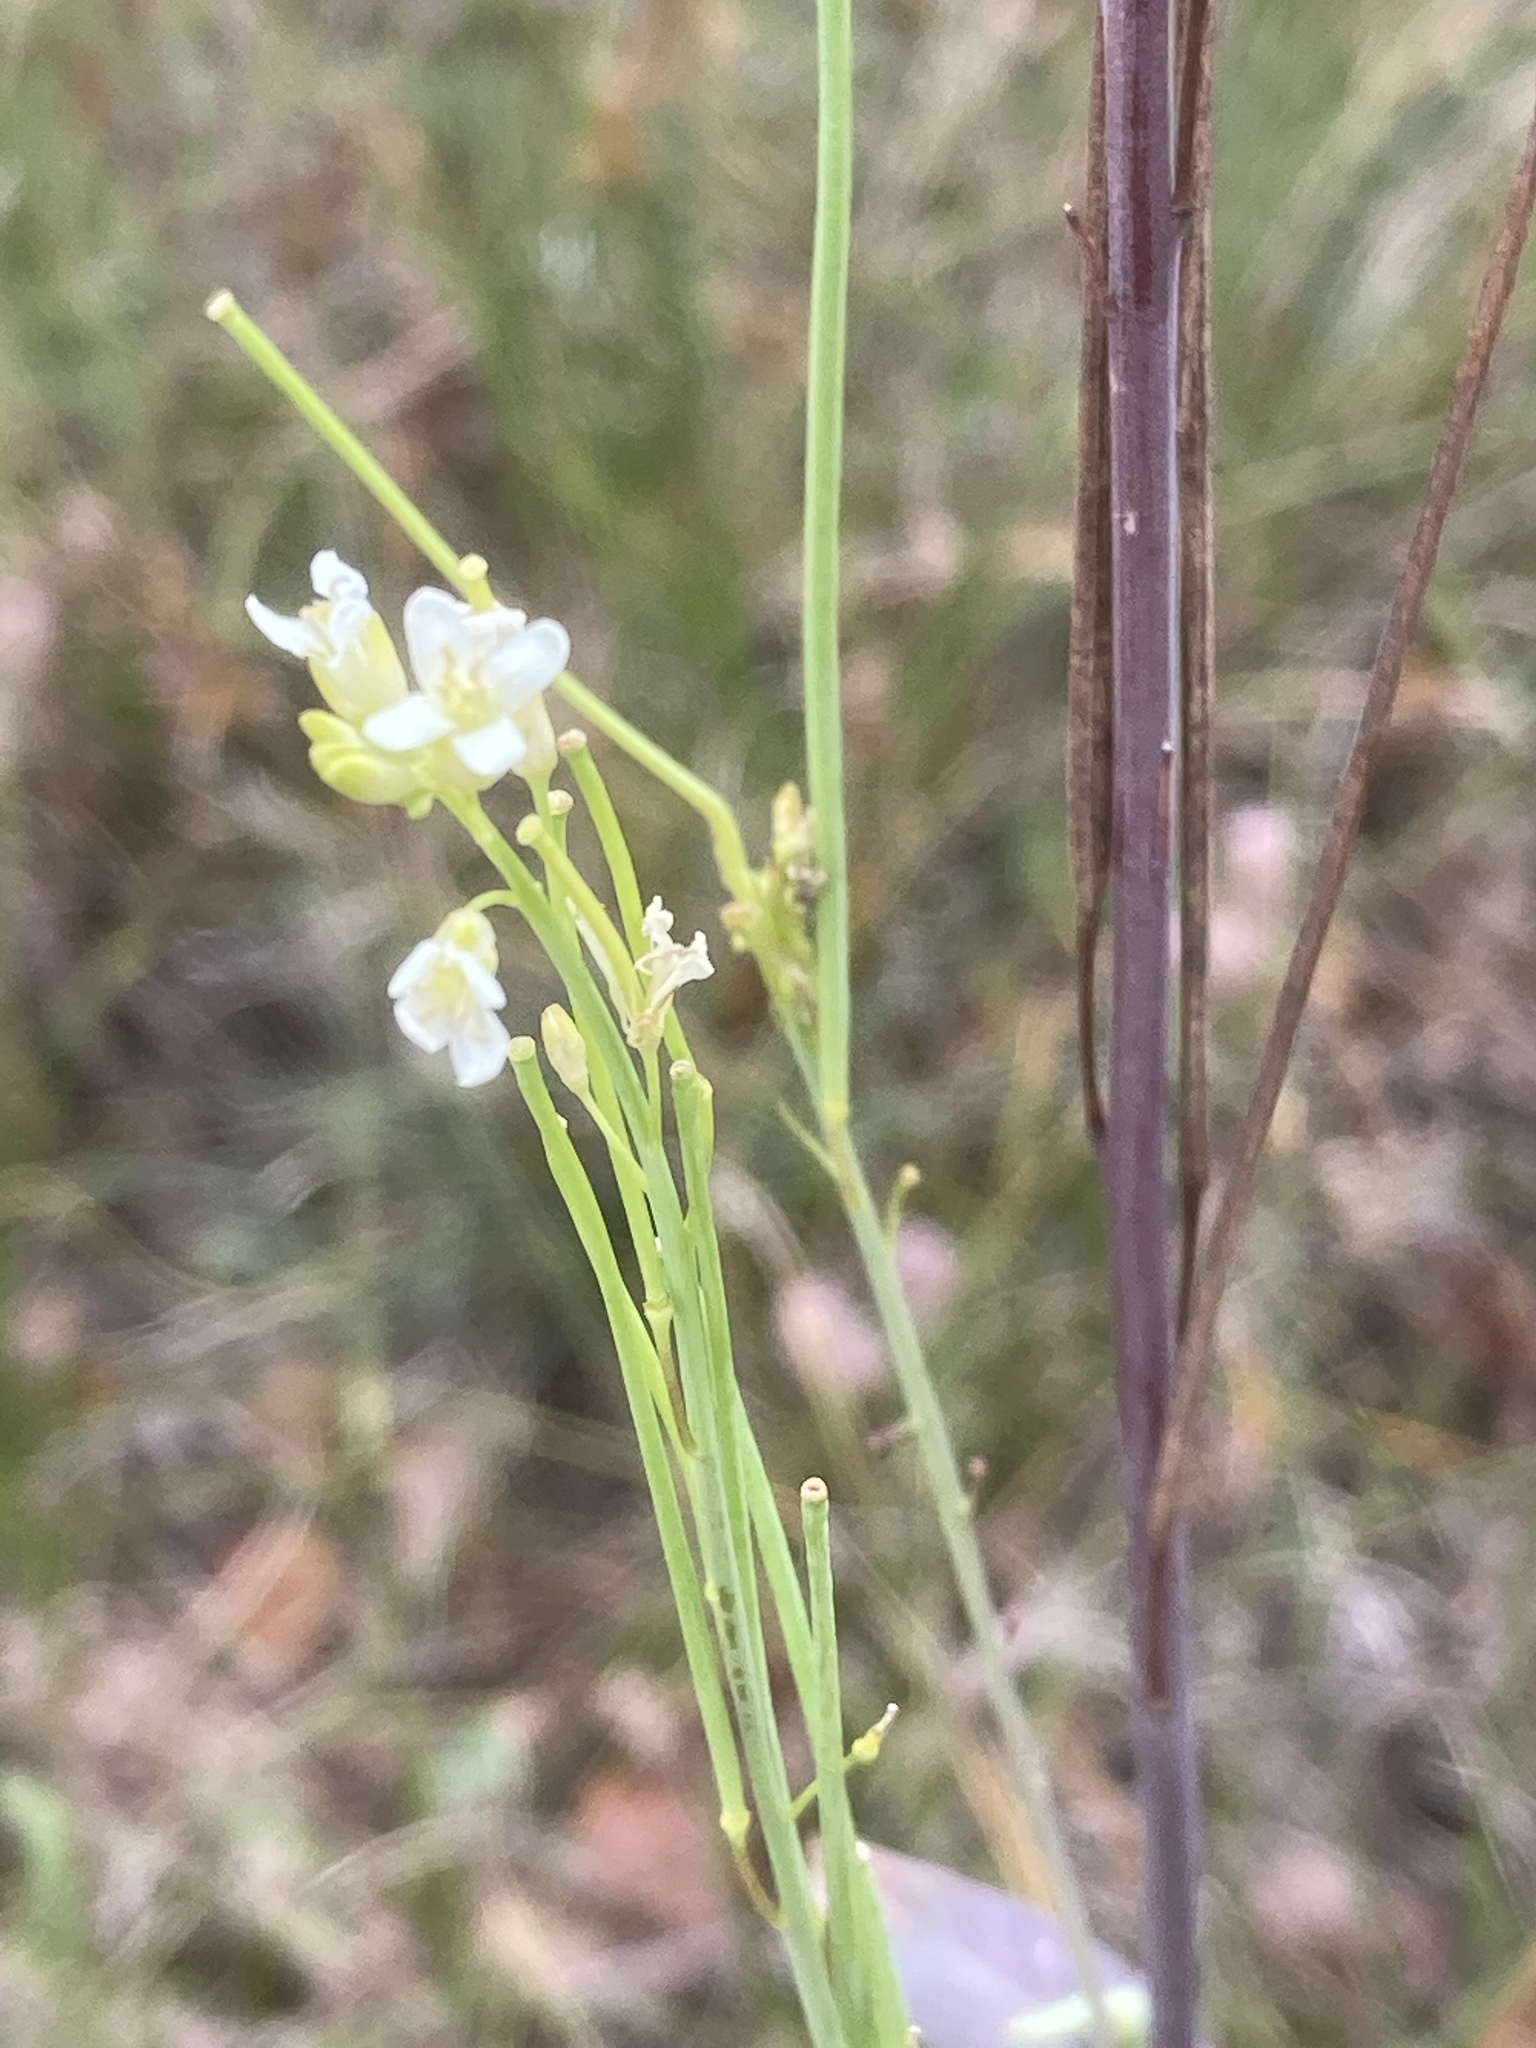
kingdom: Plantae
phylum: Tracheophyta
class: Magnoliopsida
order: Brassicales
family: Brassicaceae
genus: Turritis
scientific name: Turritis glabra
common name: Tower rockcress
